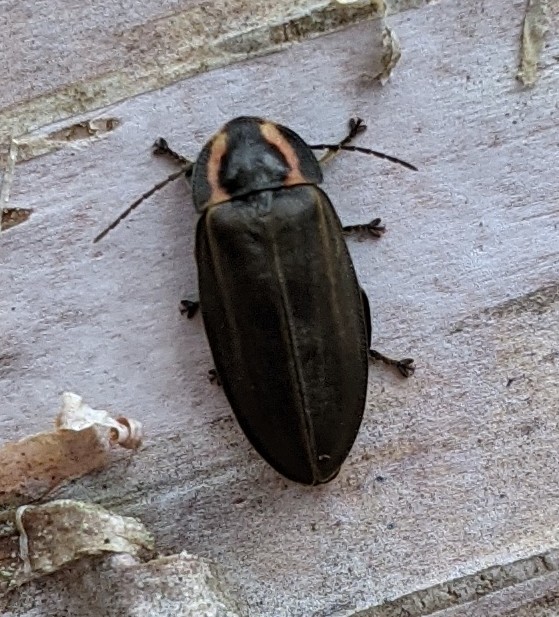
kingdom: Animalia
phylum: Arthropoda
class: Insecta
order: Coleoptera
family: Lampyridae
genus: Photinus
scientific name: Photinus corrusca
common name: Winter firefly
